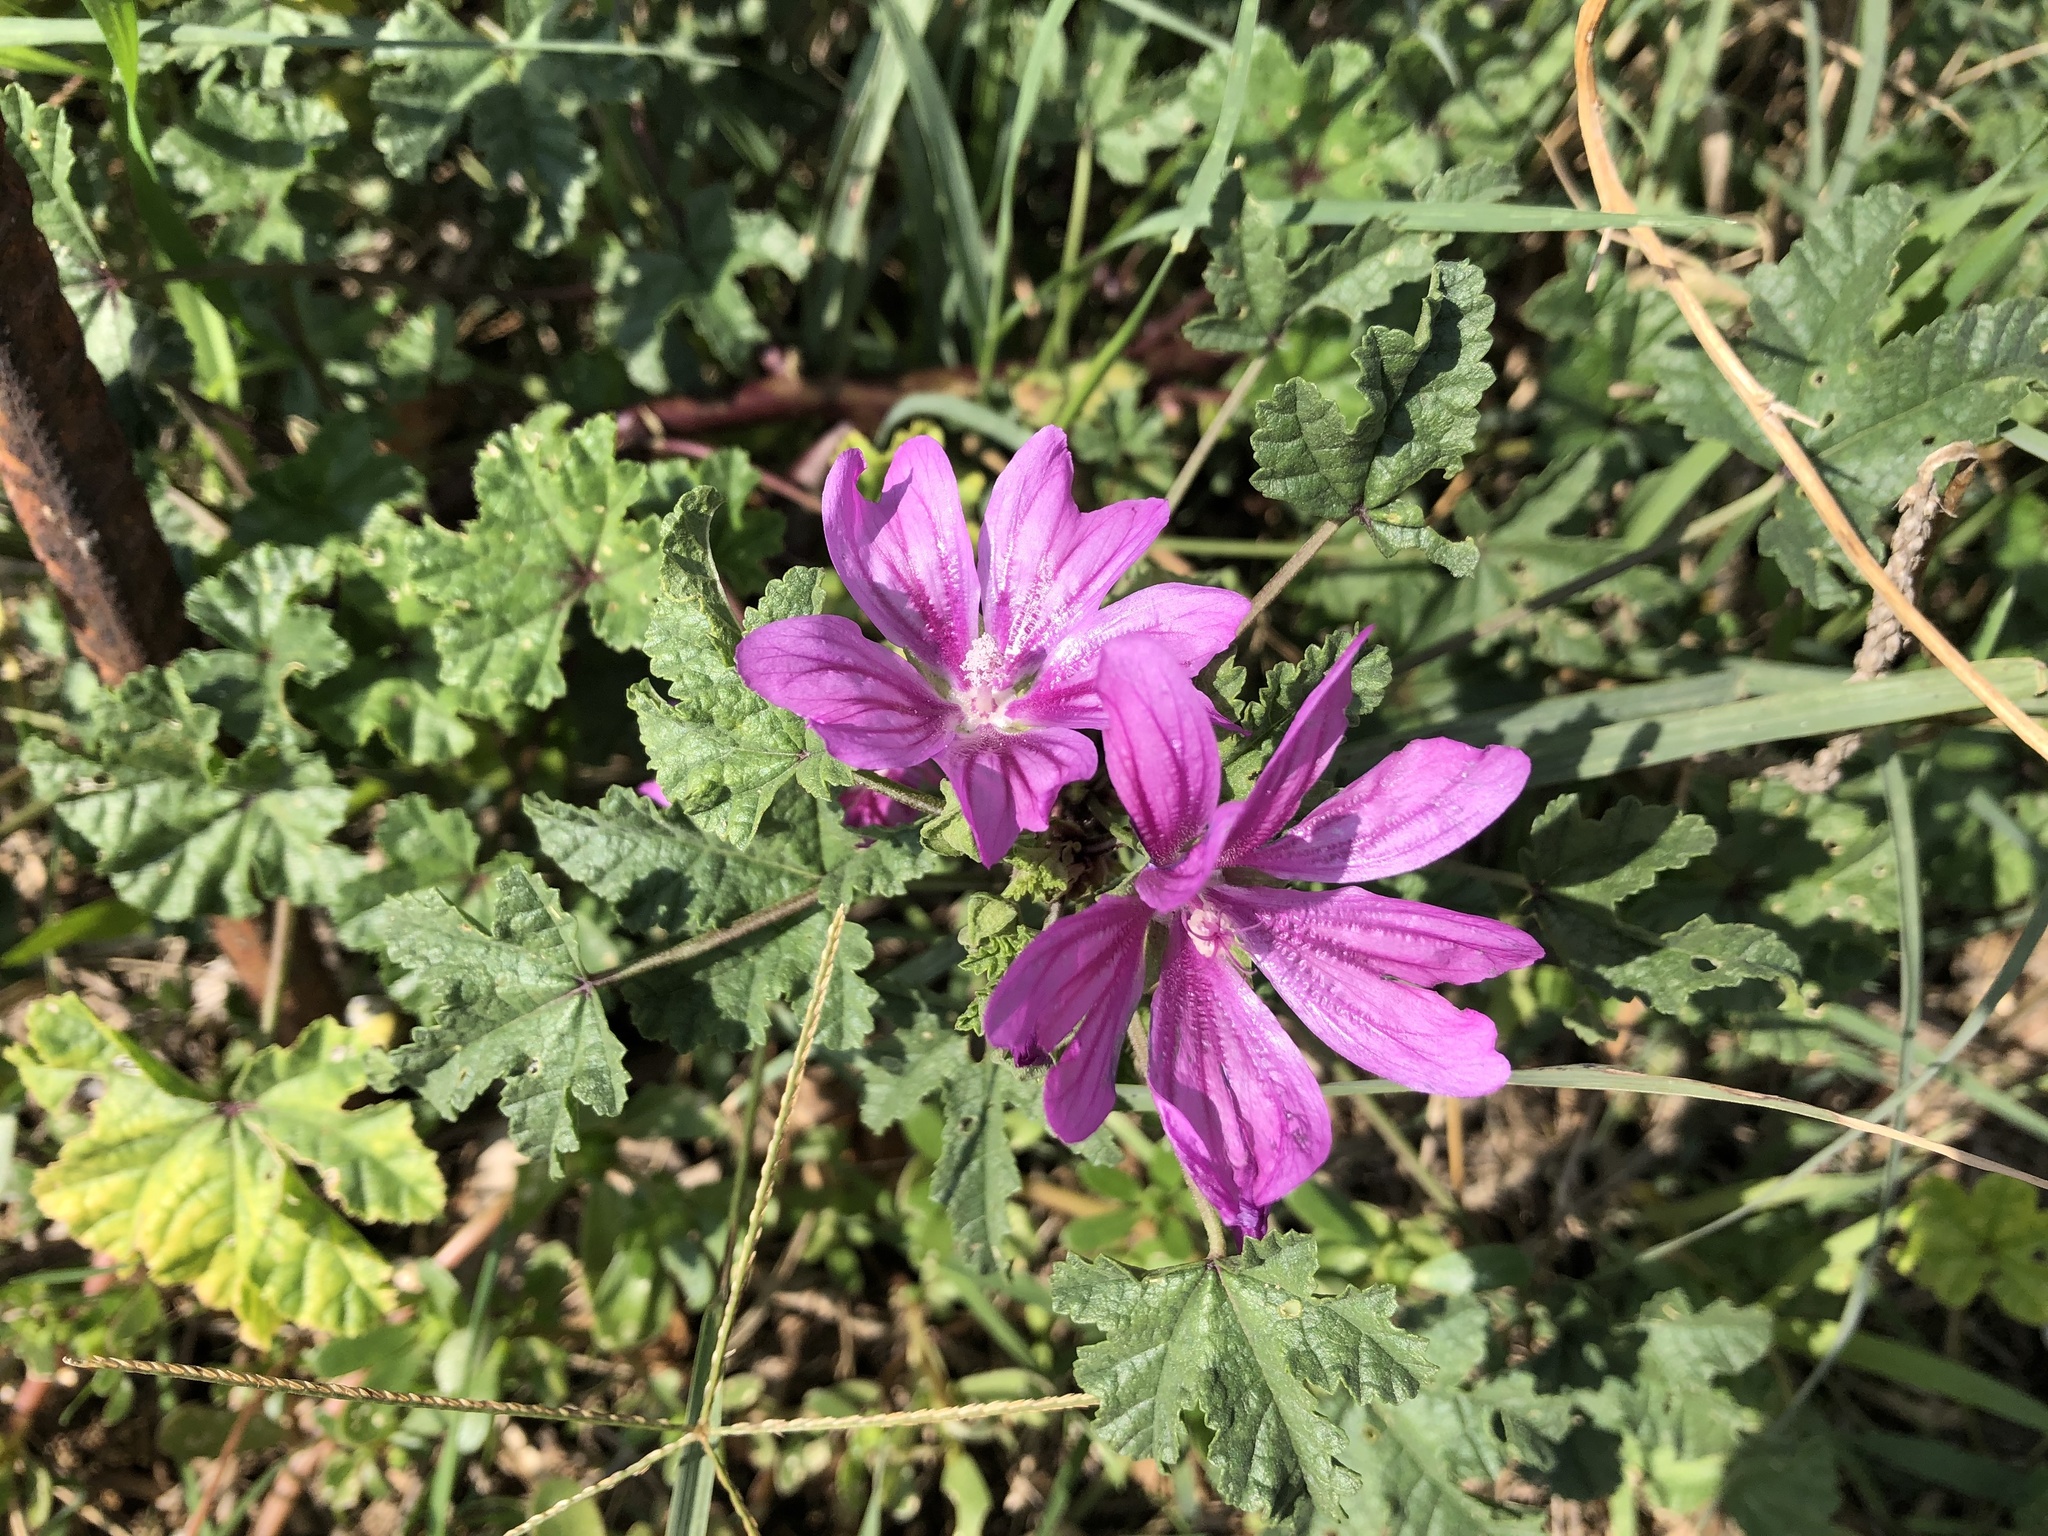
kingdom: Plantae
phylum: Tracheophyta
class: Magnoliopsida
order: Malvales
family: Malvaceae
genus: Malva
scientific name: Malva sylvestris
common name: Common mallow
